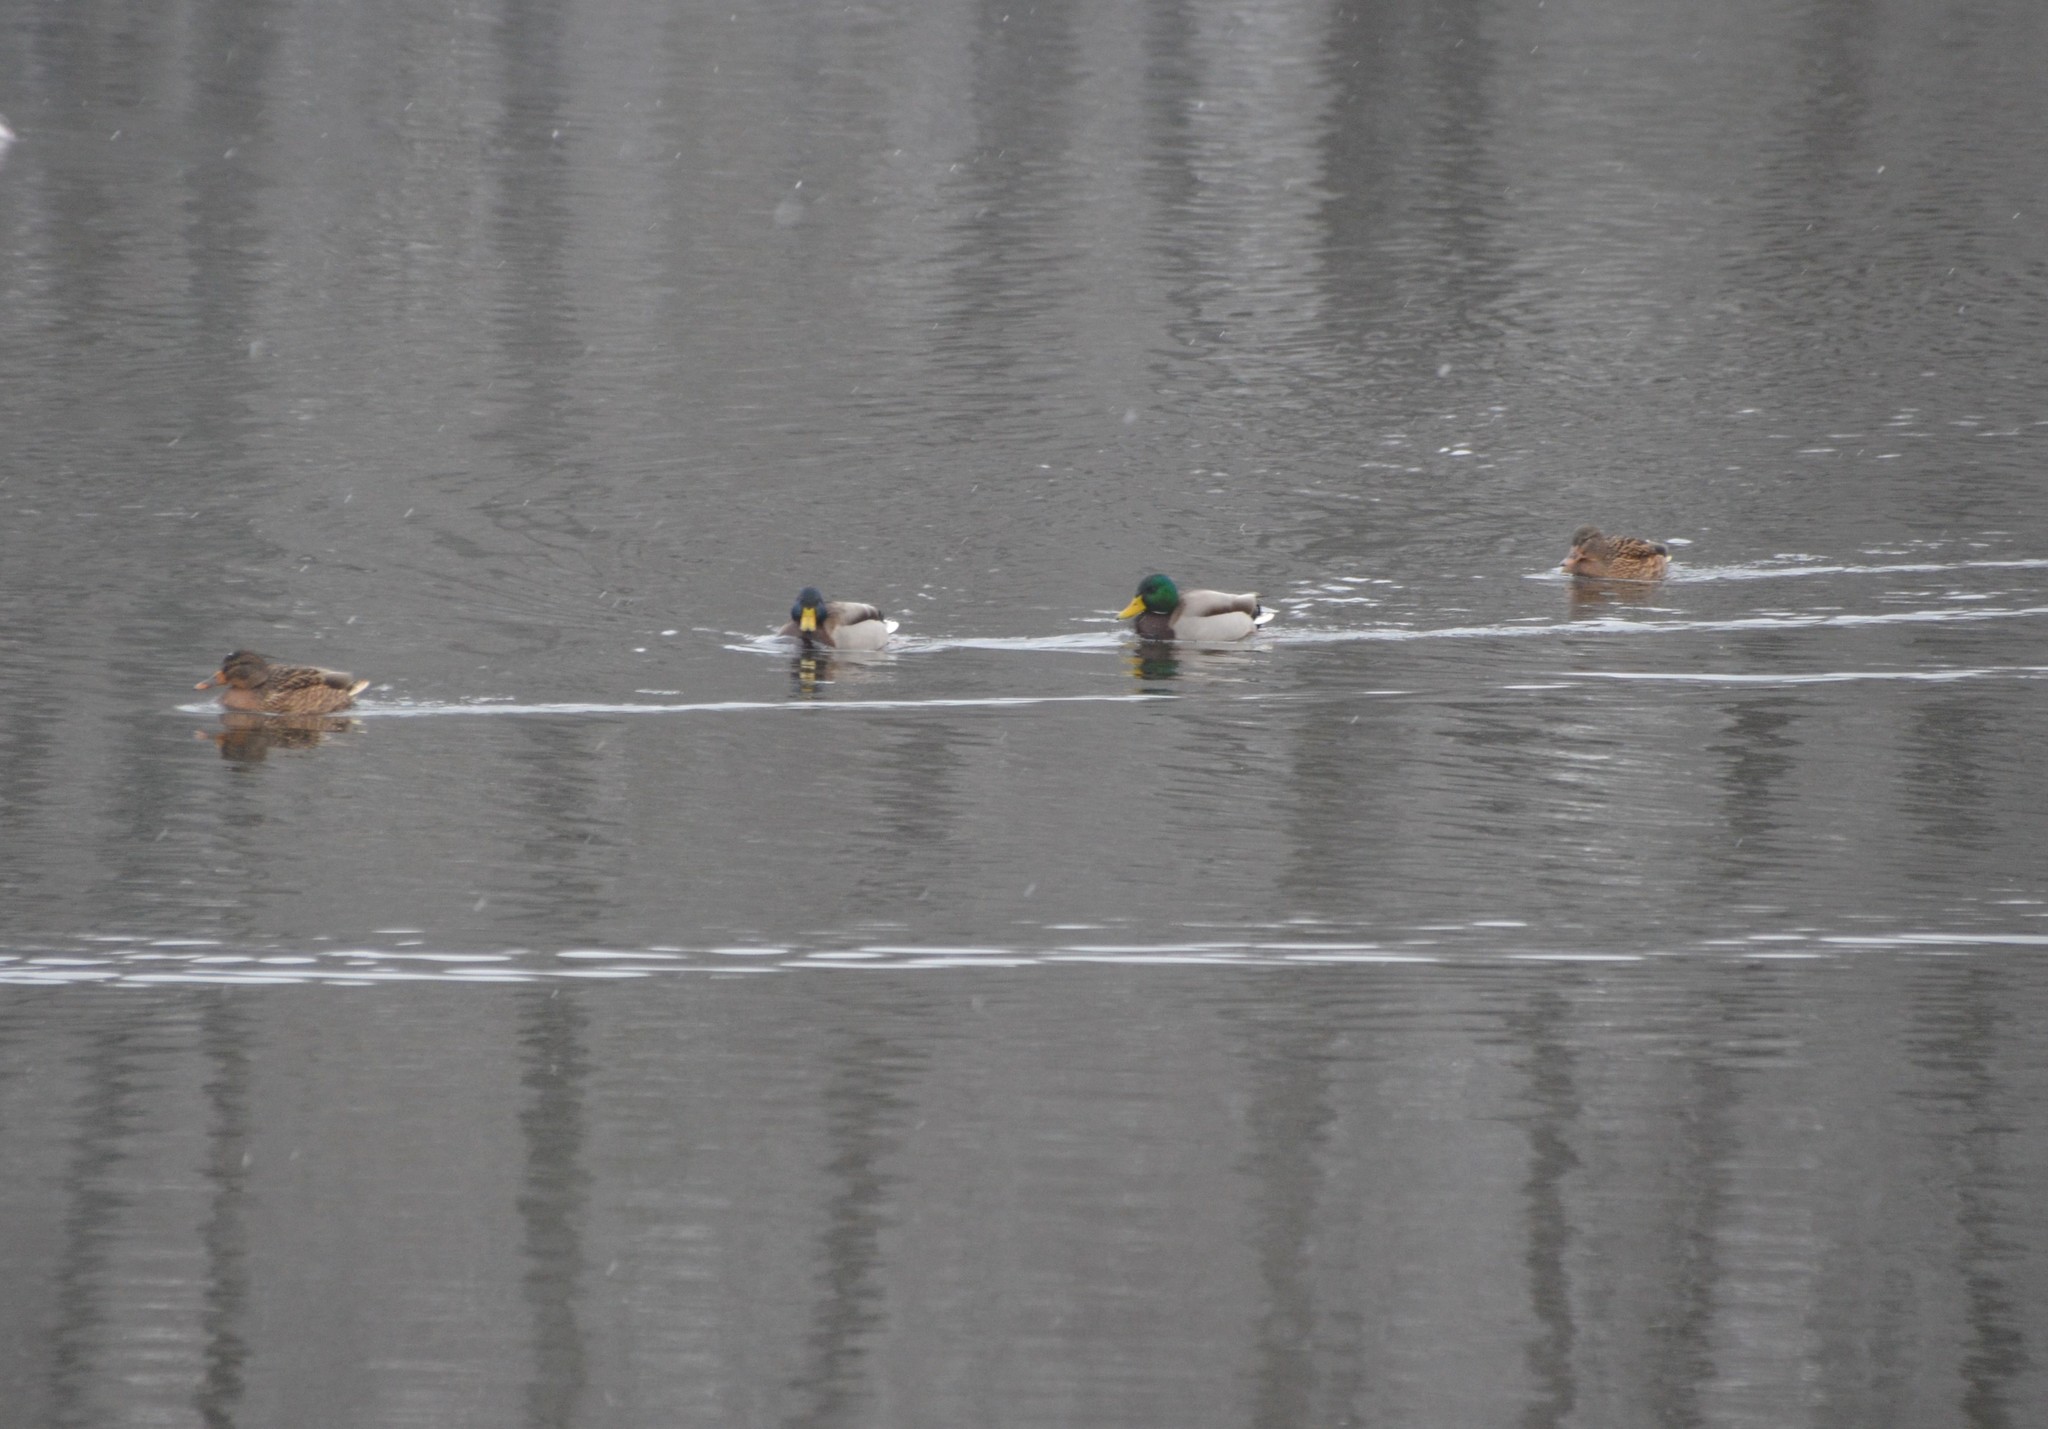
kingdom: Animalia
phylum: Chordata
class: Aves
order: Anseriformes
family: Anatidae
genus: Anas
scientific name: Anas platyrhynchos
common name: Mallard
